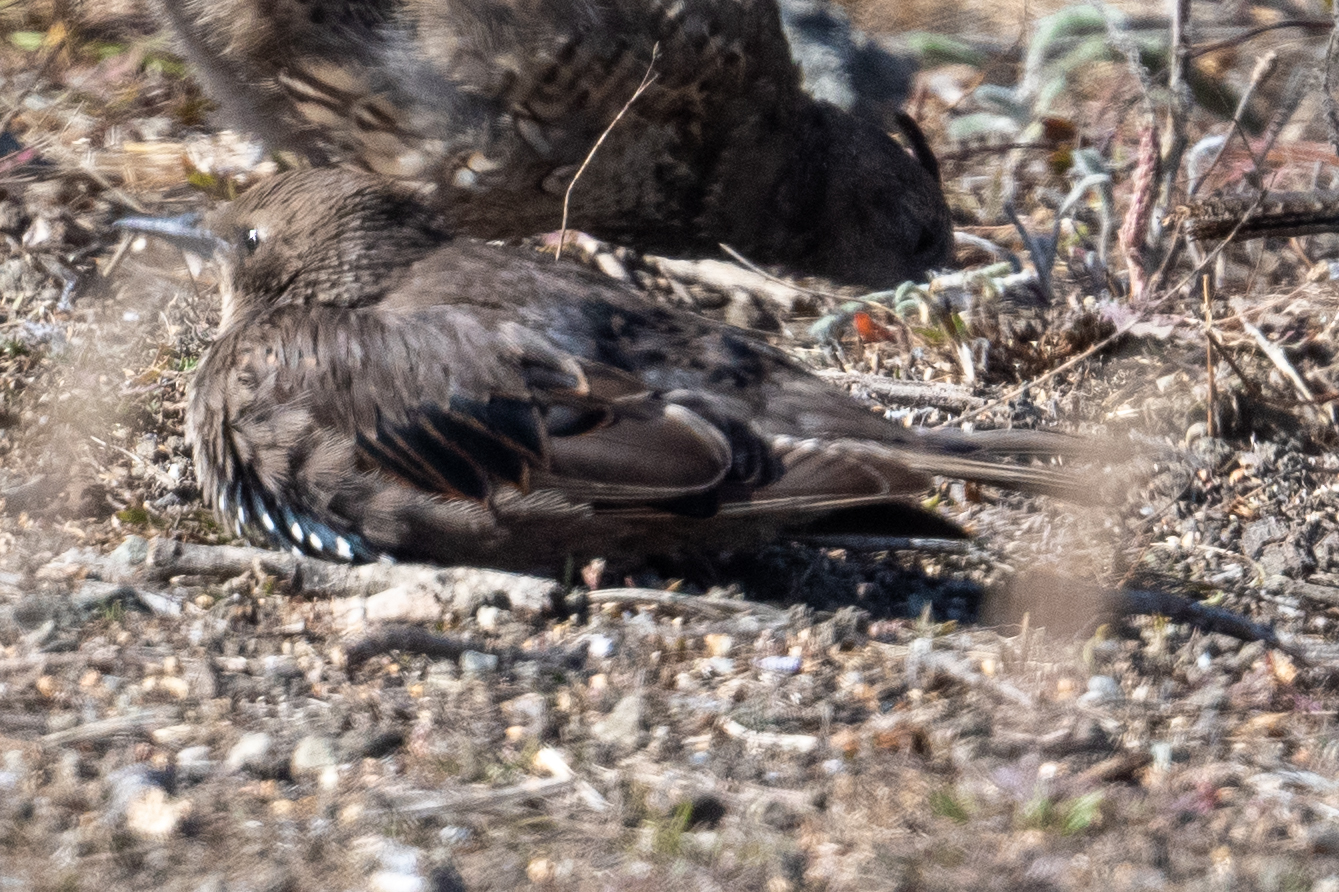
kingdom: Animalia
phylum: Chordata
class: Aves
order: Passeriformes
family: Sturnidae
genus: Sturnus
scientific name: Sturnus vulgaris
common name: Common starling
